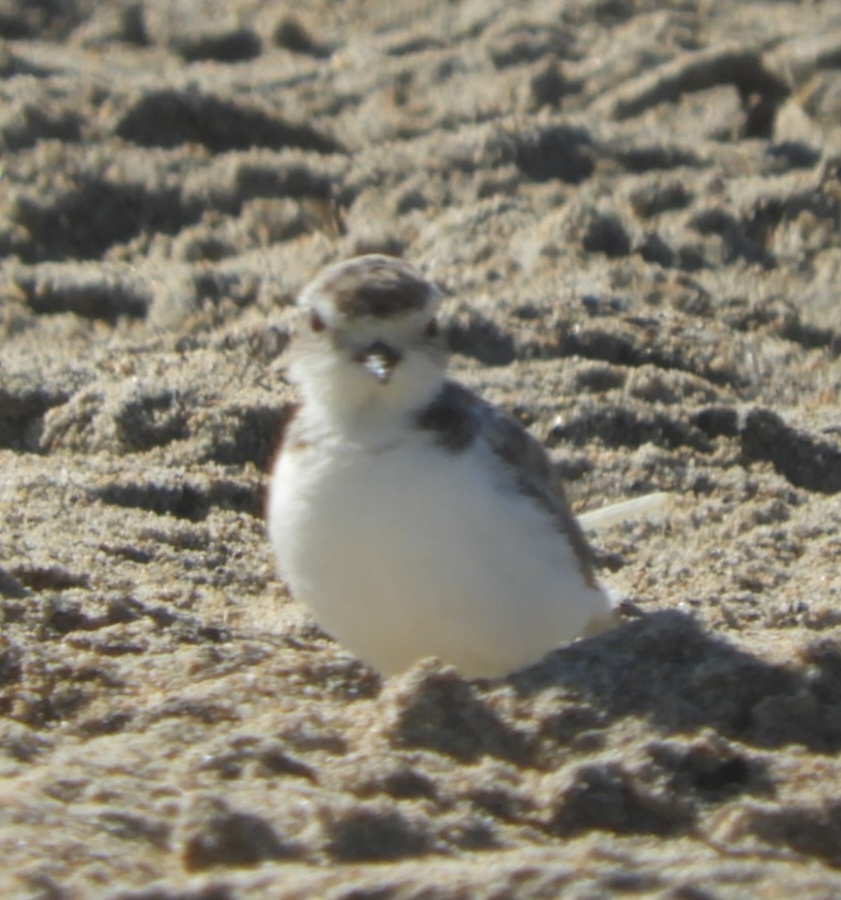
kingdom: Animalia
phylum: Chordata
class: Aves
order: Charadriiformes
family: Charadriidae
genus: Anarhynchus
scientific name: Anarhynchus
